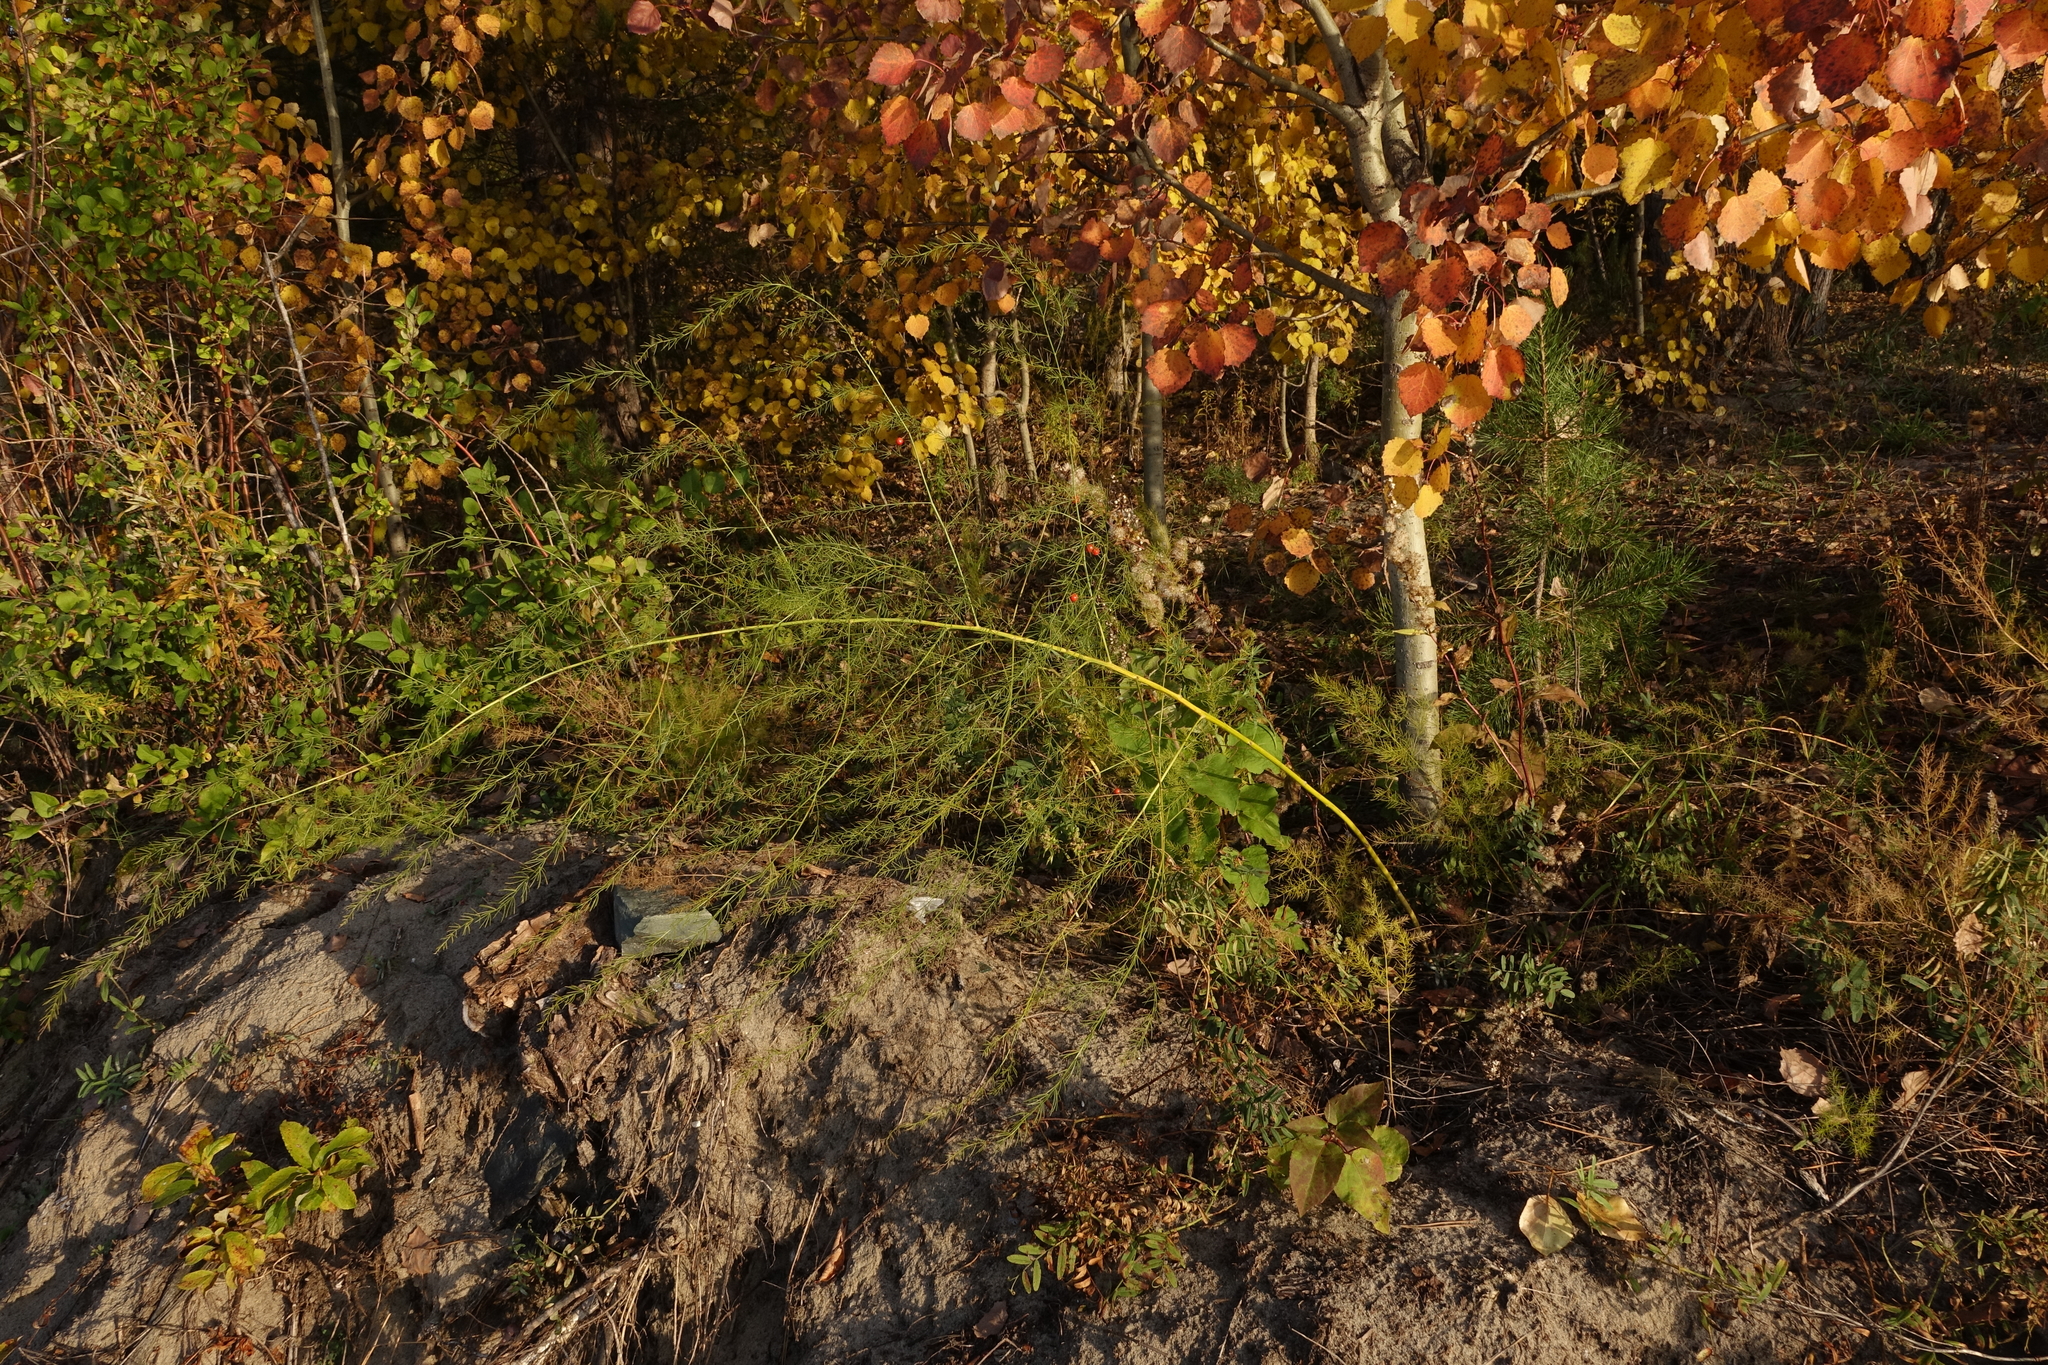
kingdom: Plantae
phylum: Tracheophyta
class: Liliopsida
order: Asparagales
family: Asparagaceae
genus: Asparagus
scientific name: Asparagus officinalis
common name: Garden asparagus
